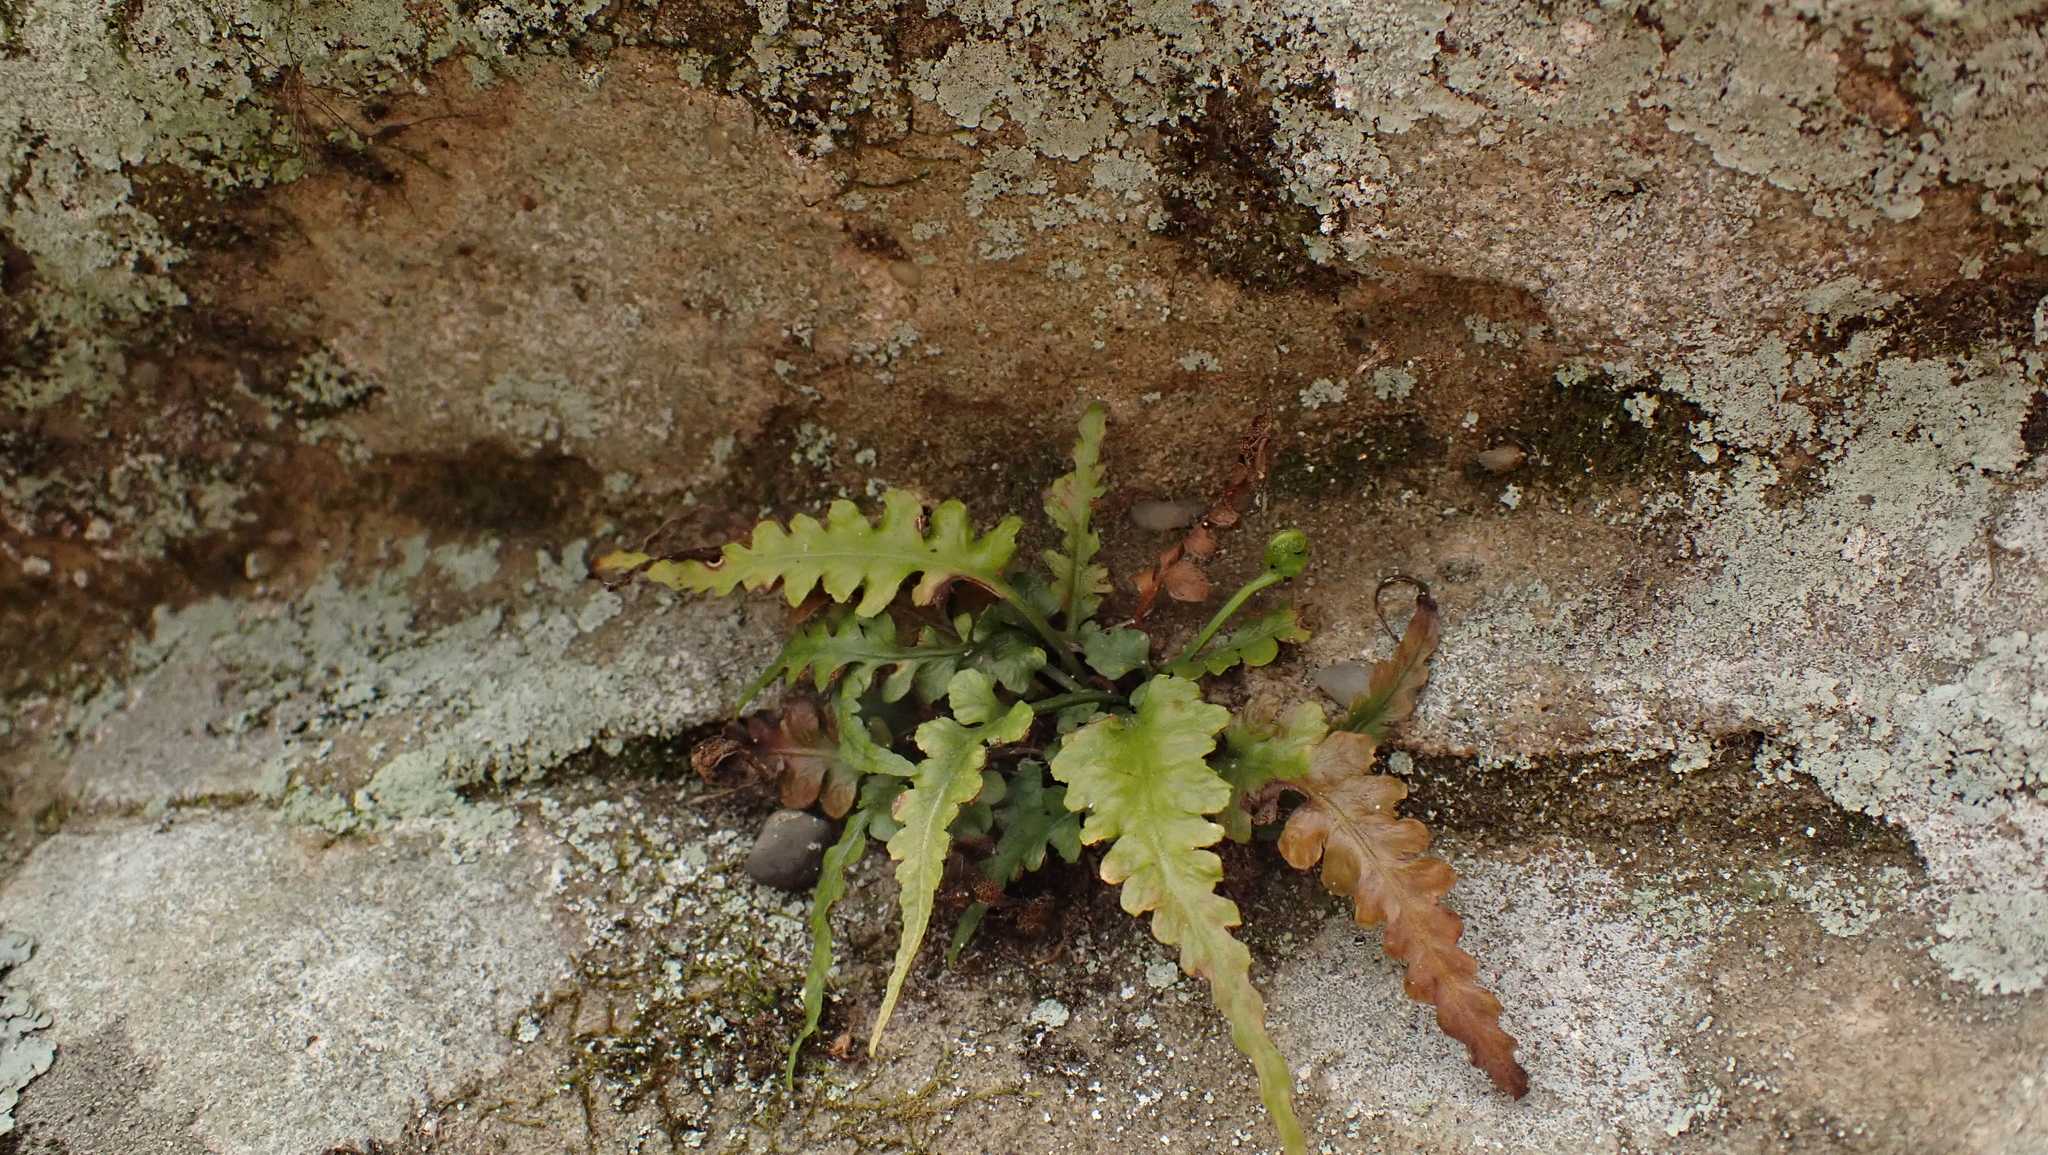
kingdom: Plantae
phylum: Tracheophyta
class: Polypodiopsida
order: Polypodiales
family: Aspleniaceae
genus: Asplenium
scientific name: Asplenium pinnatifidum
